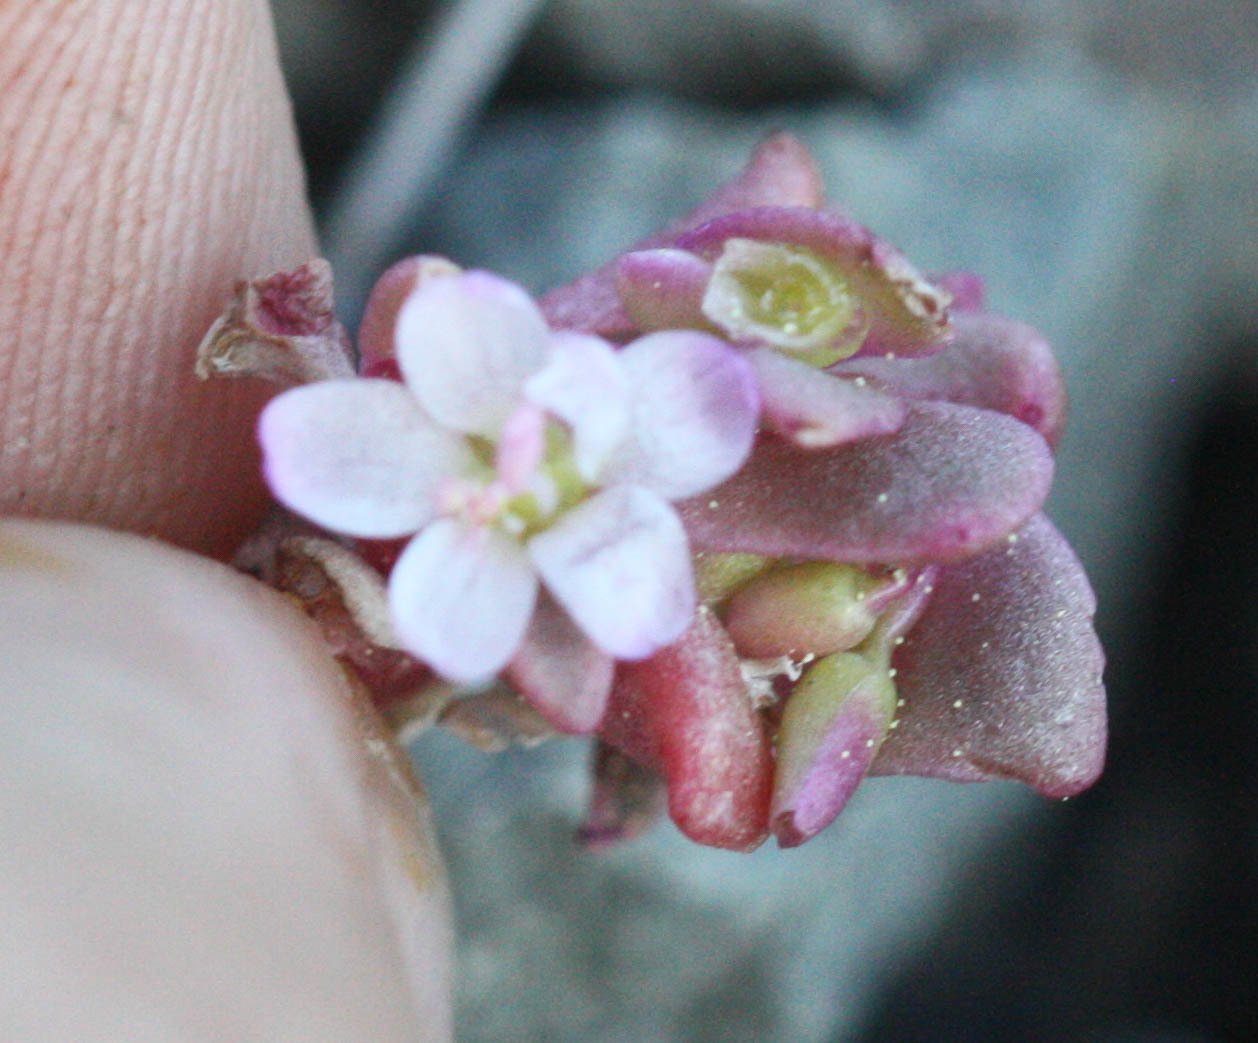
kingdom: Plantae
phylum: Tracheophyta
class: Magnoliopsida
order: Caryophyllales
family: Montiaceae
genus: Claytonia
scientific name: Claytonia saxosa
